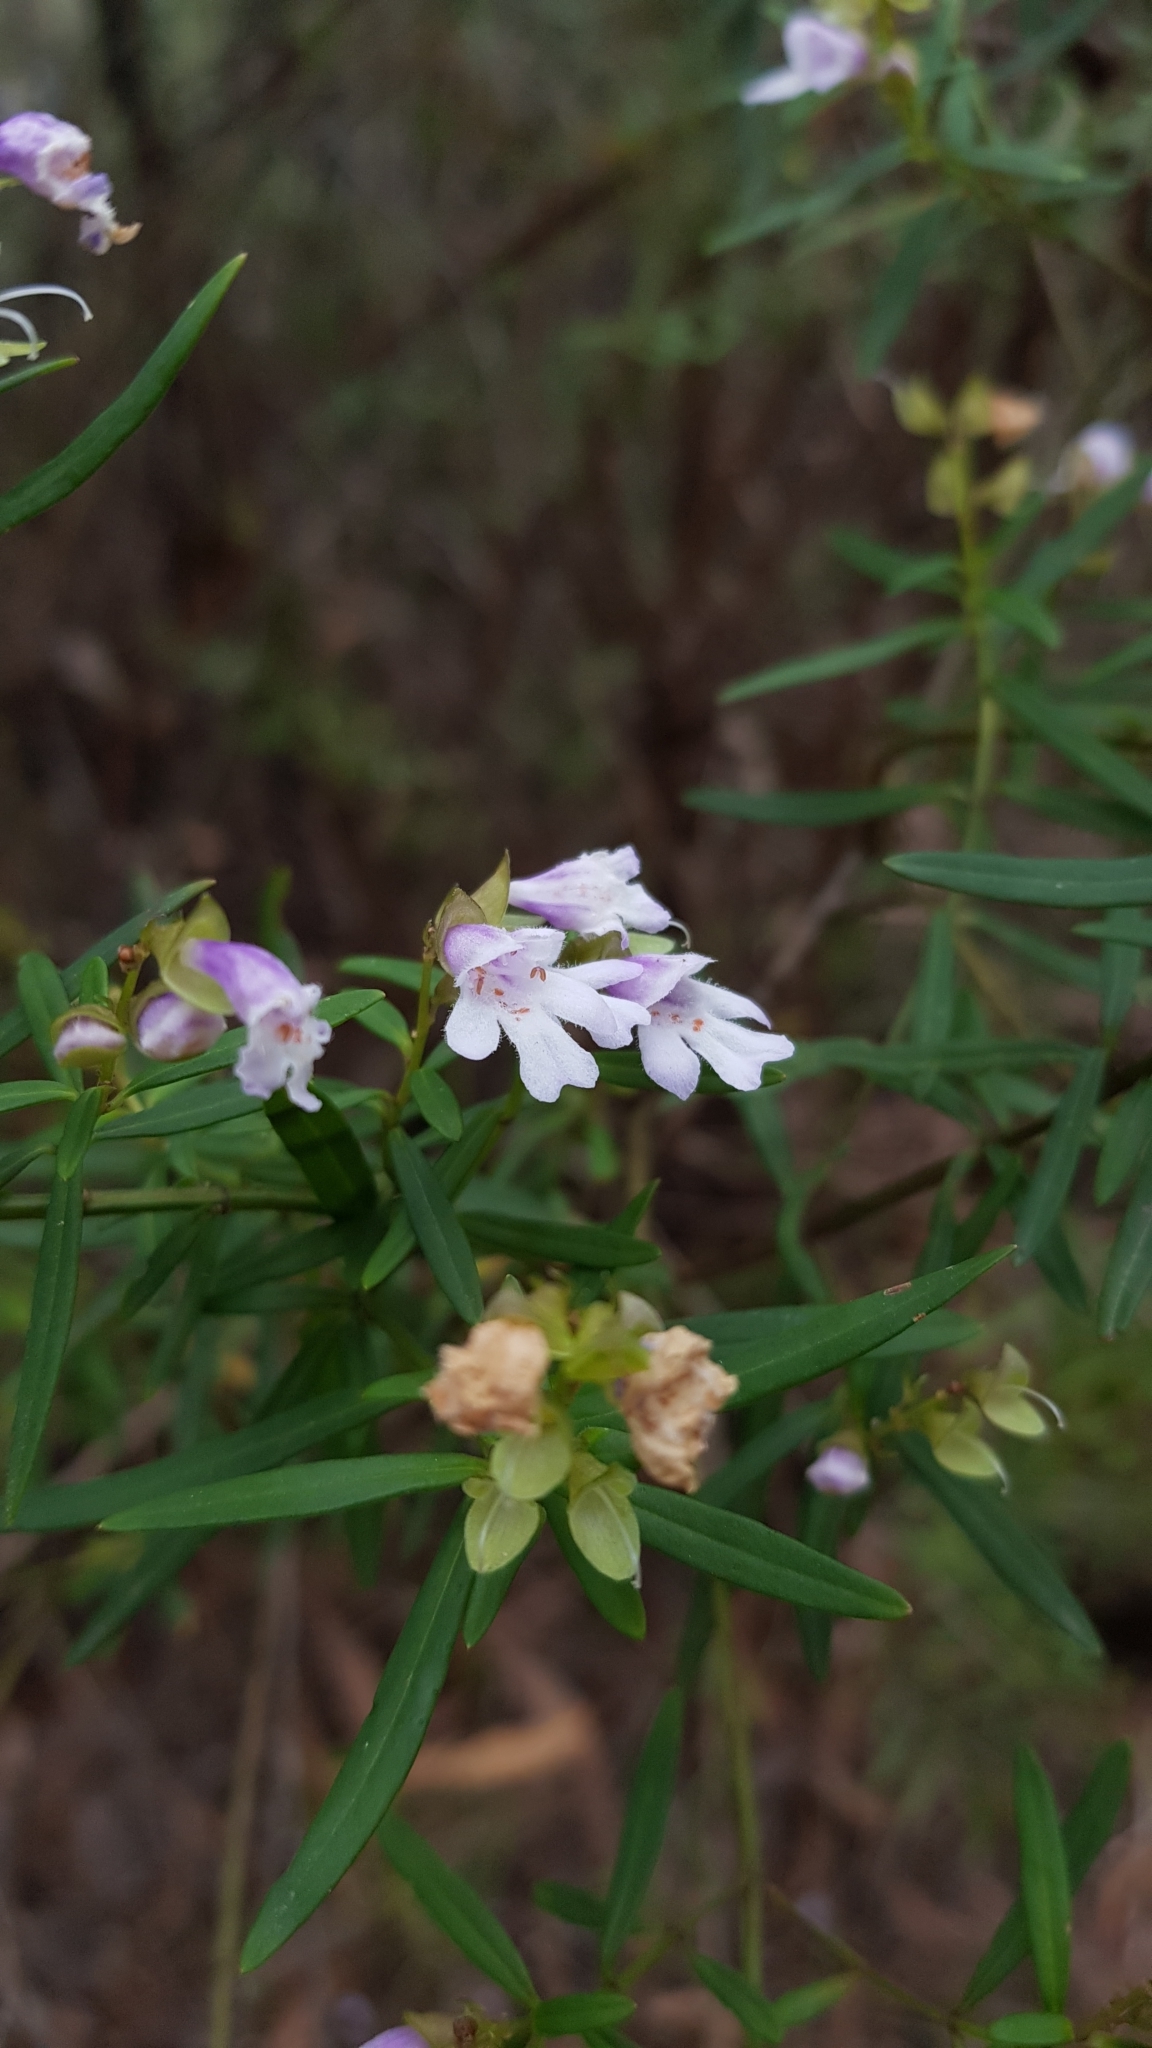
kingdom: Plantae
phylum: Tracheophyta
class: Magnoliopsida
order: Lamiales
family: Lamiaceae
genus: Prostanthera
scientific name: Prostanthera linearis
